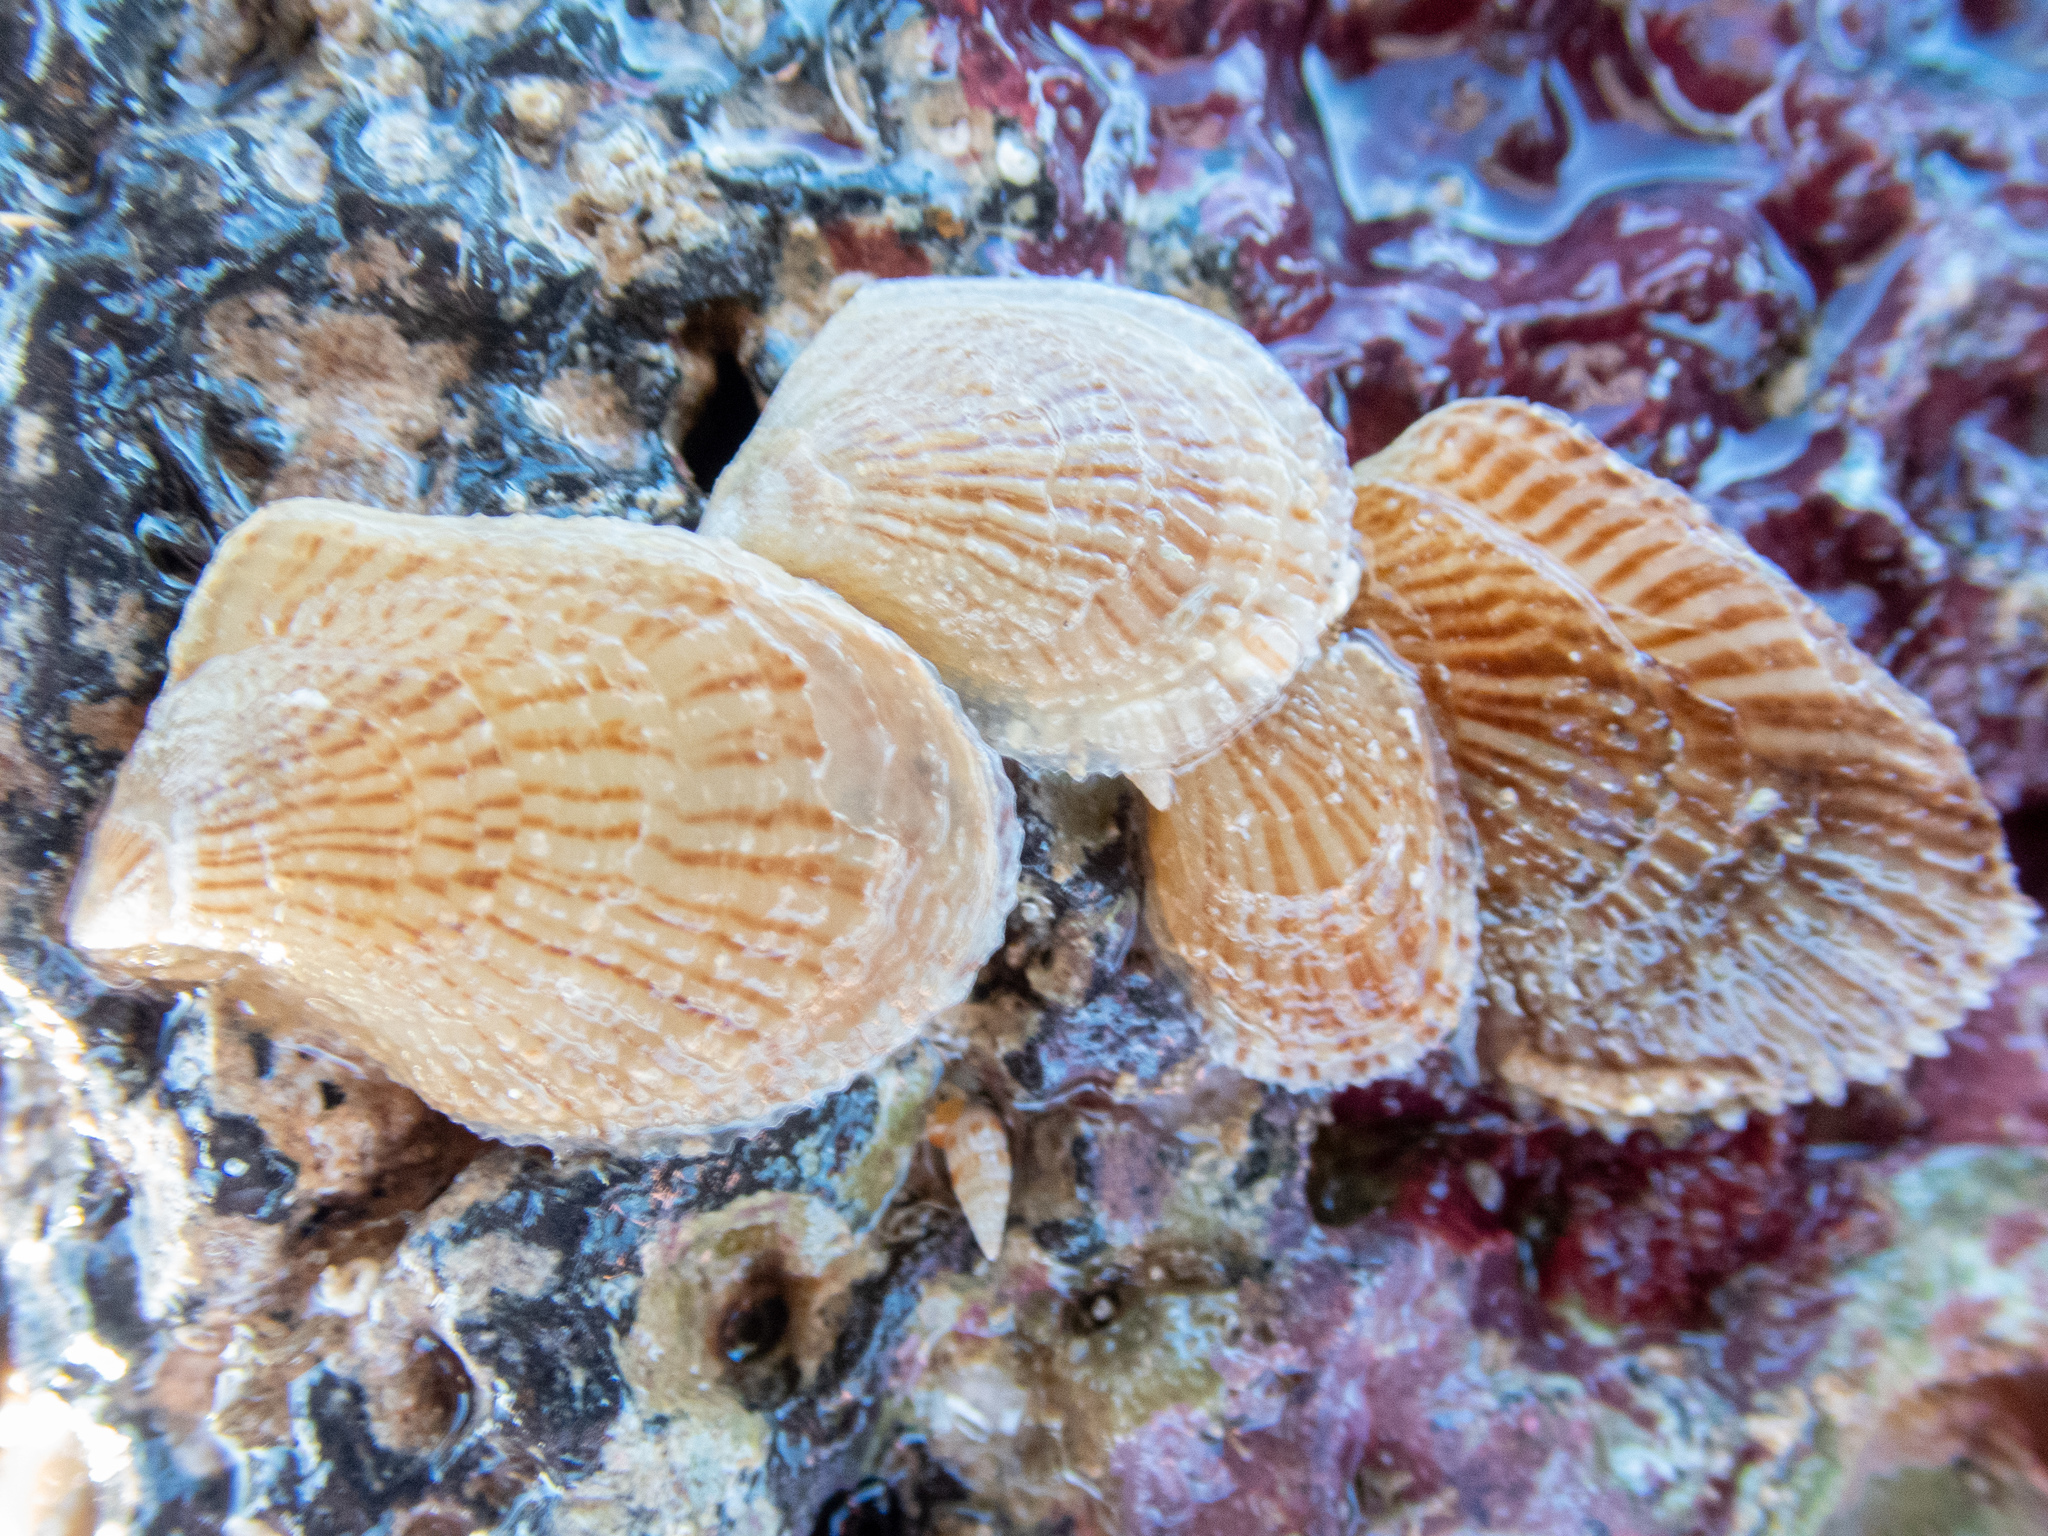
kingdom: Animalia
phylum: Mollusca
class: Bivalvia
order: Ostreida
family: Isognomonidae
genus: Isognomon
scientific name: Isognomon perna
